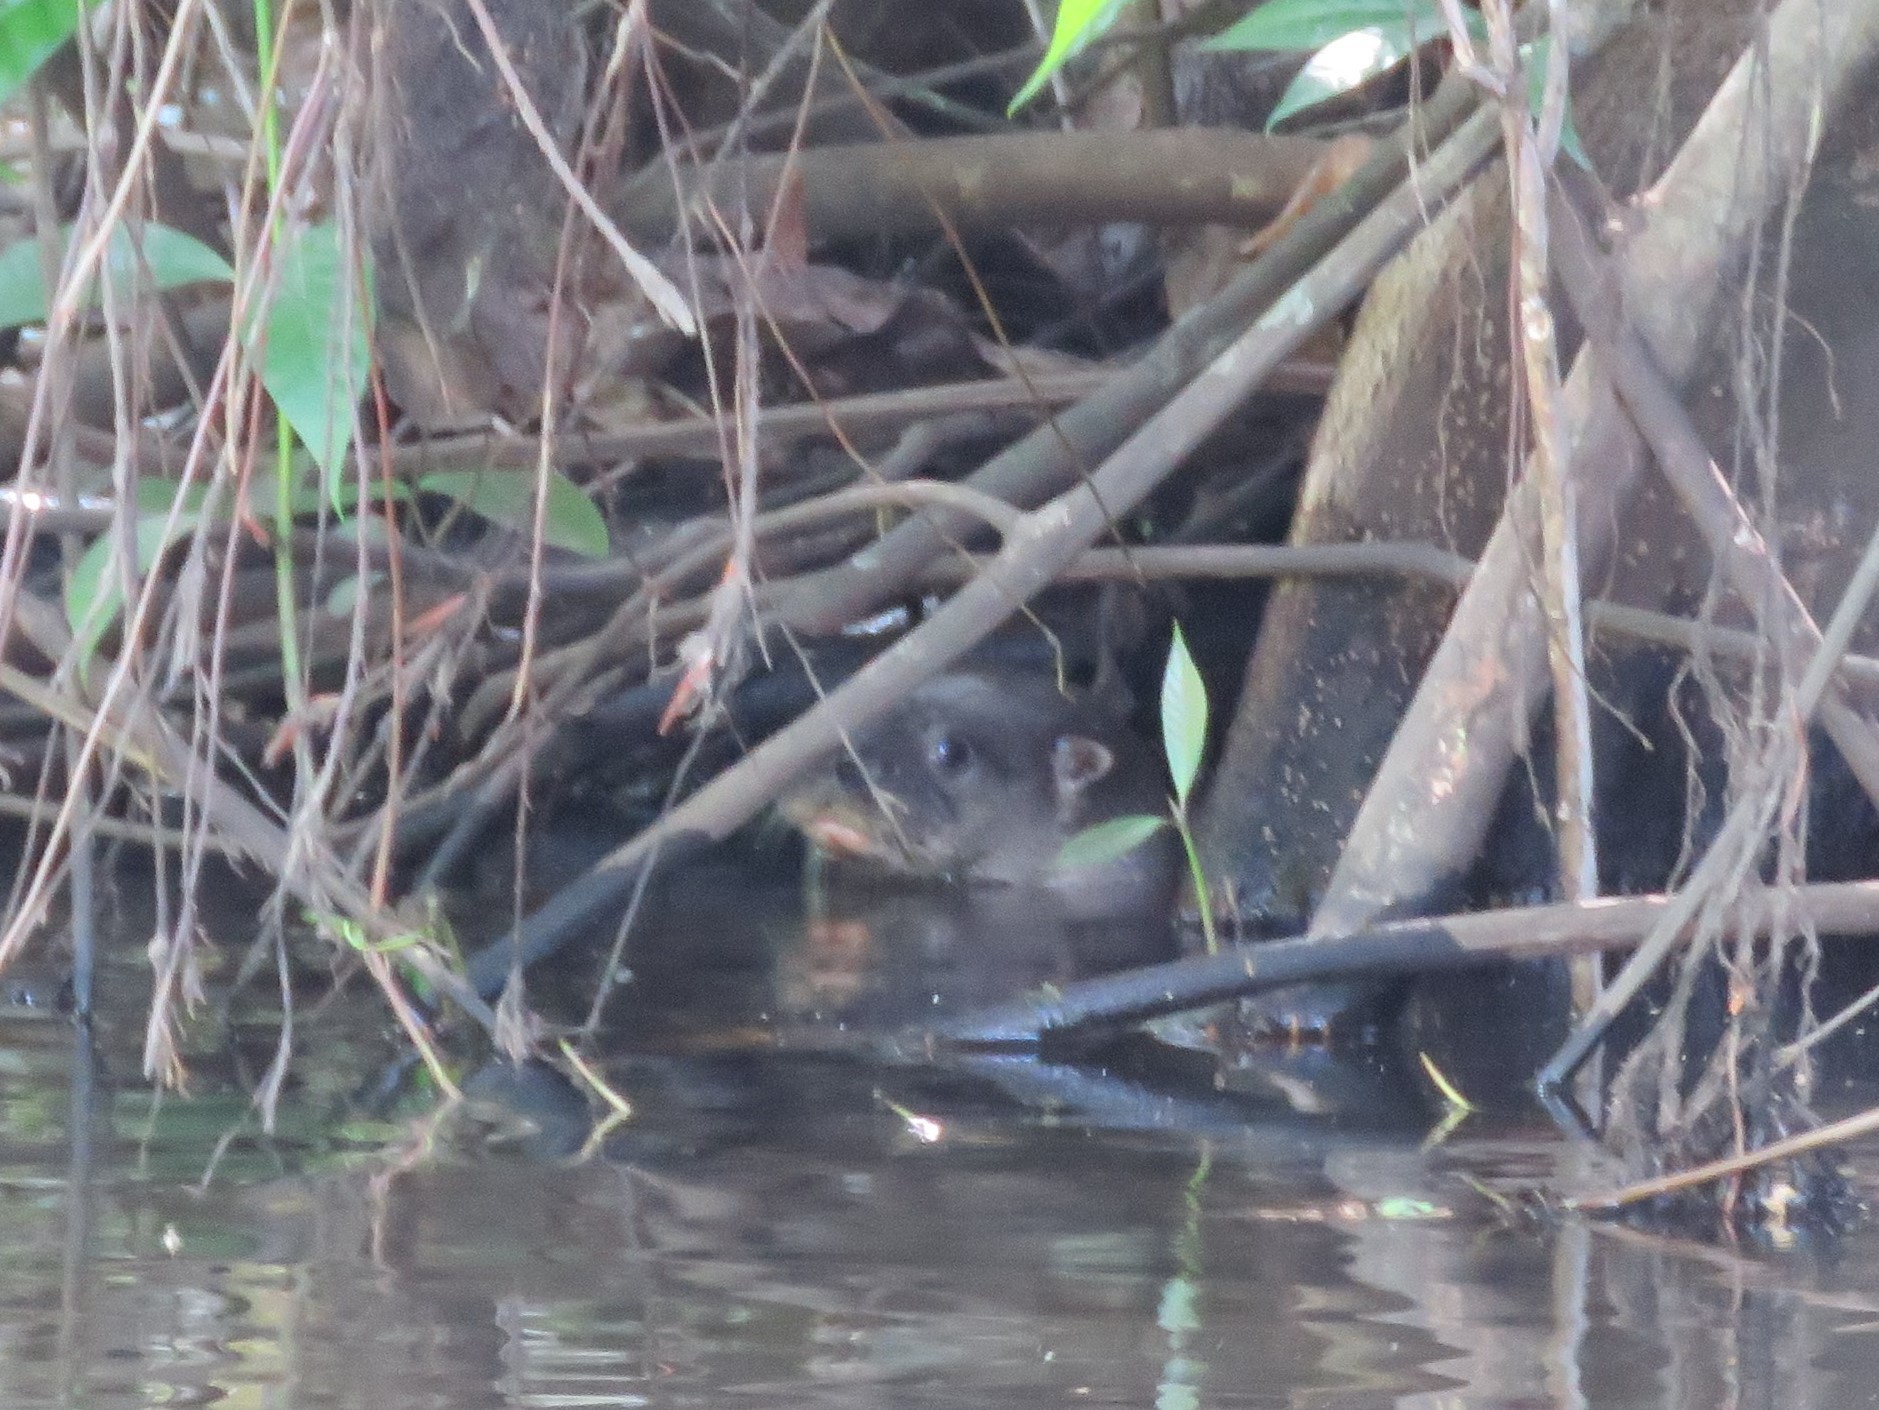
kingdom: Animalia
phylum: Chordata
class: Mammalia
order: Carnivora
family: Mustelidae
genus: Lontra
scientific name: Lontra longicaudis
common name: Neotropical otter
